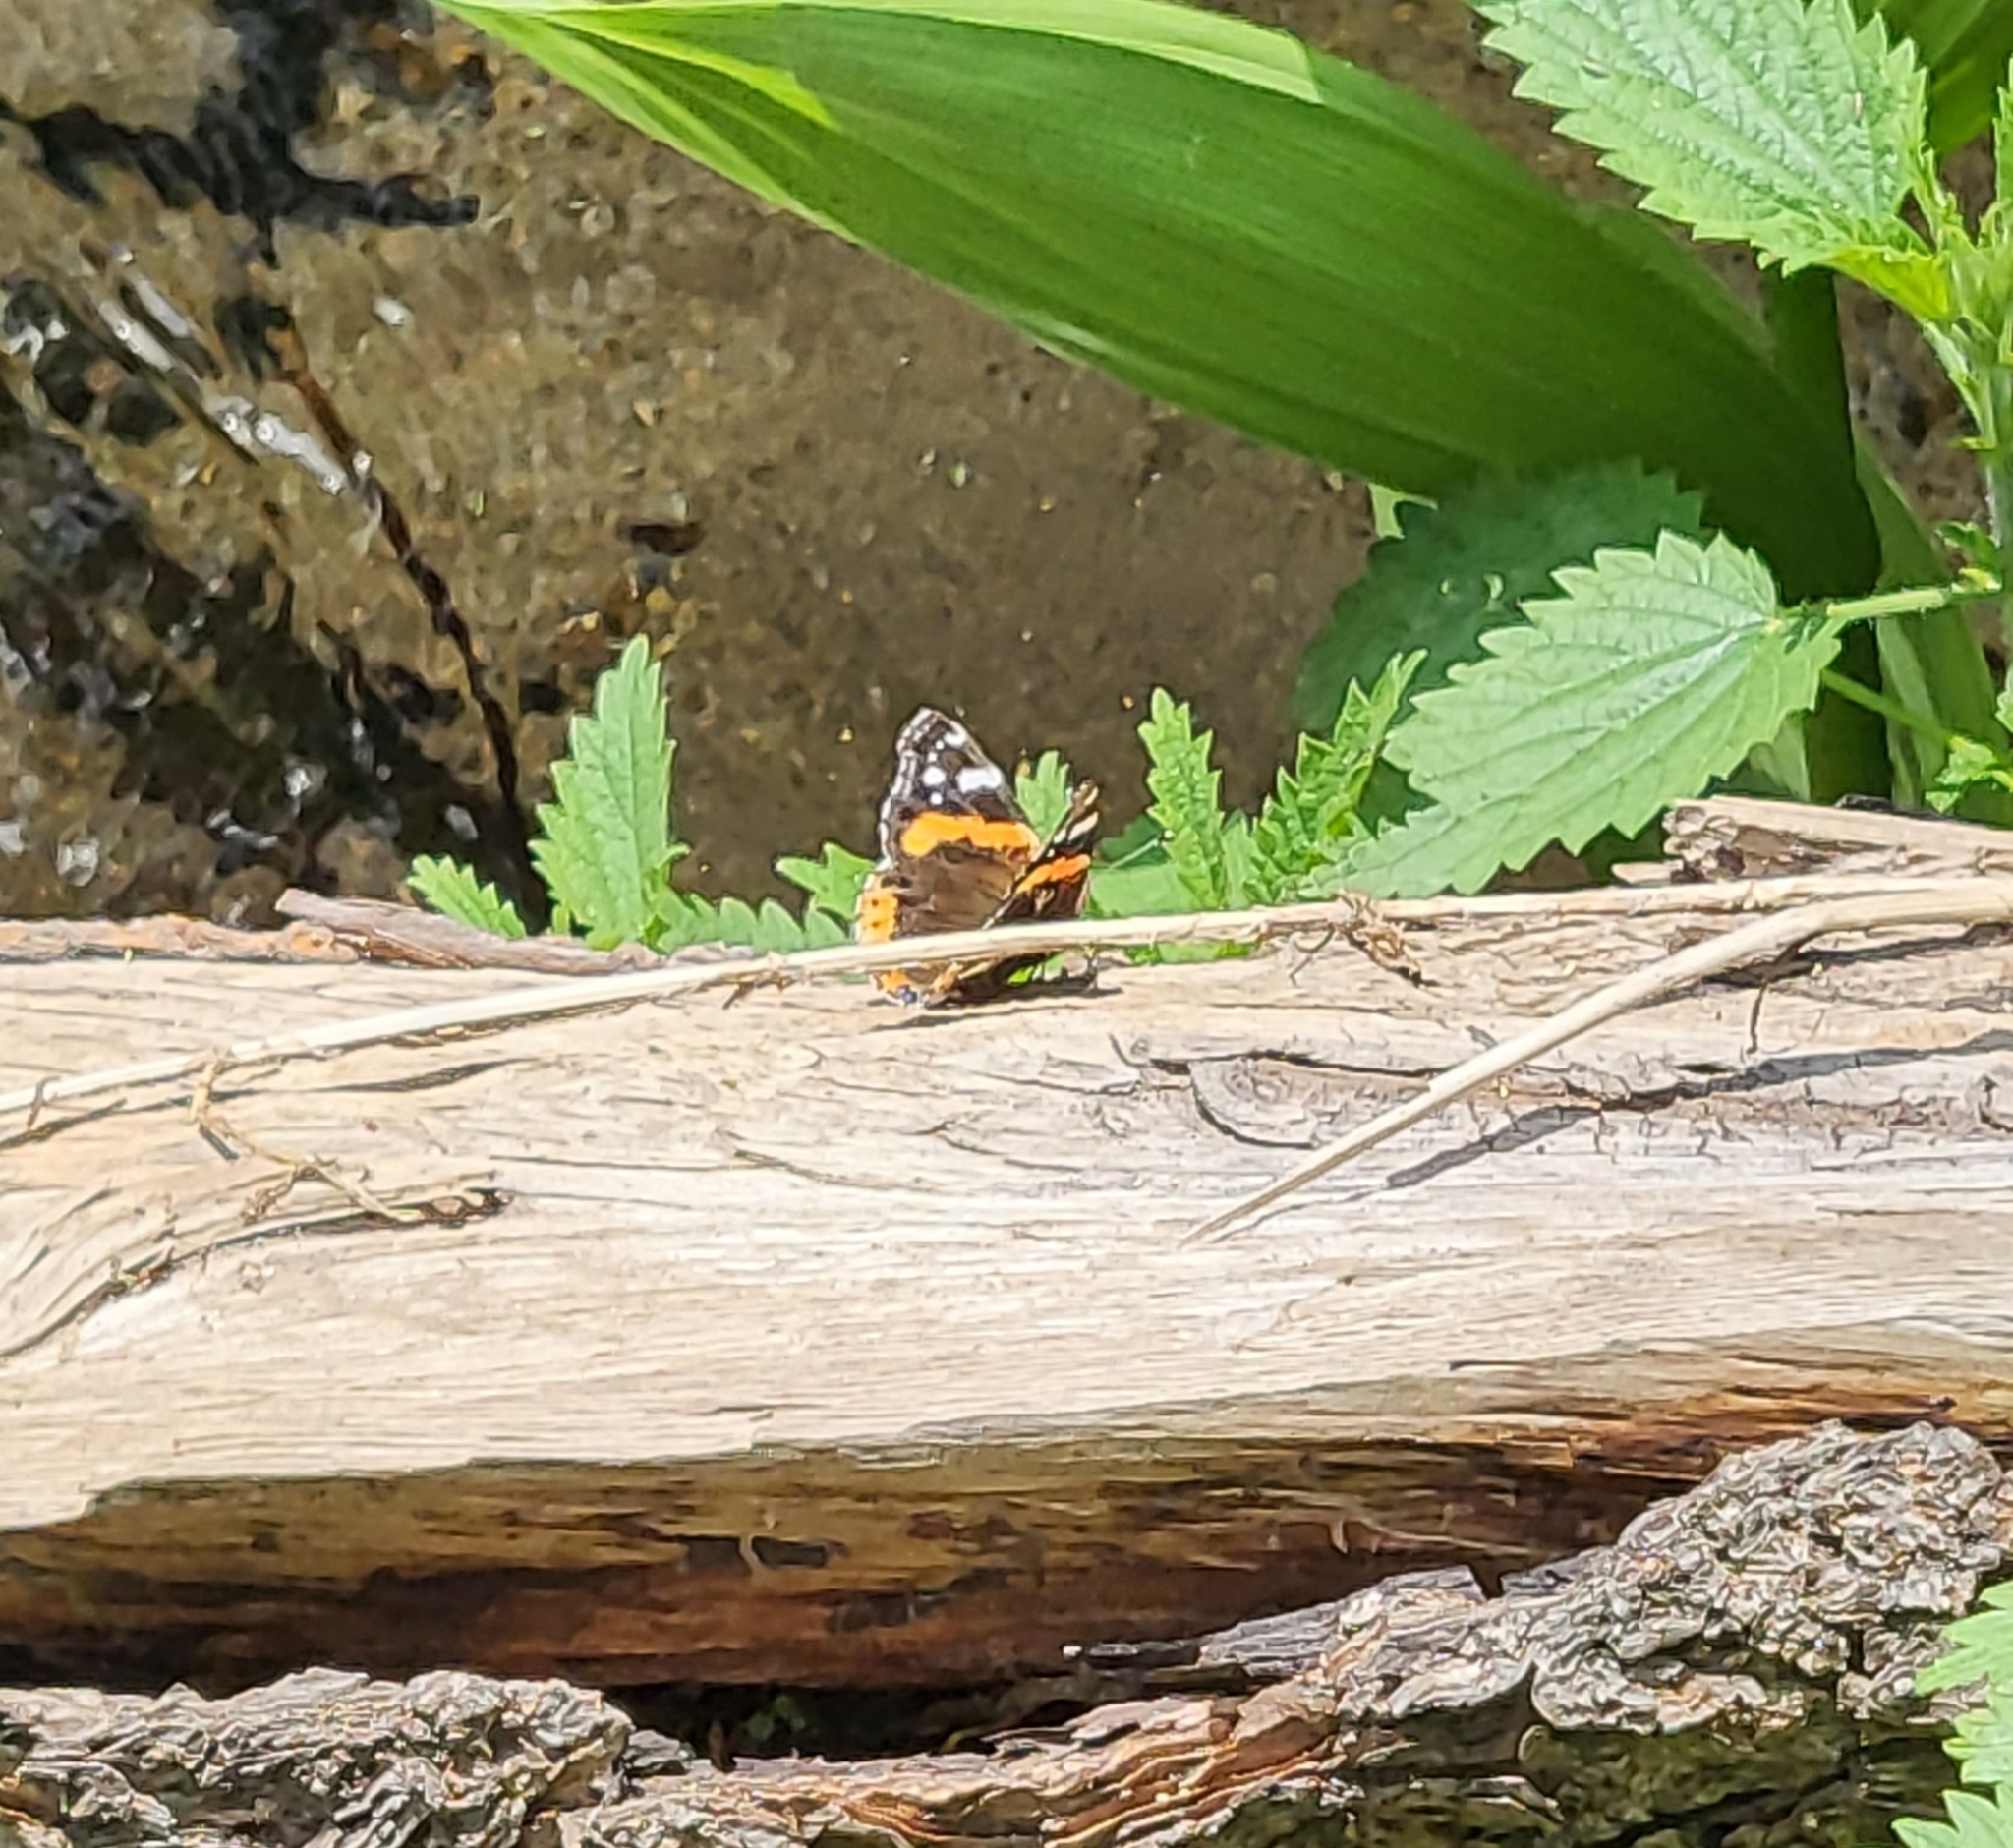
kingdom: Animalia
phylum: Arthropoda
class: Insecta
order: Lepidoptera
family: Nymphalidae
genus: Vanessa
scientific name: Vanessa atalanta
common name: Red admiral
